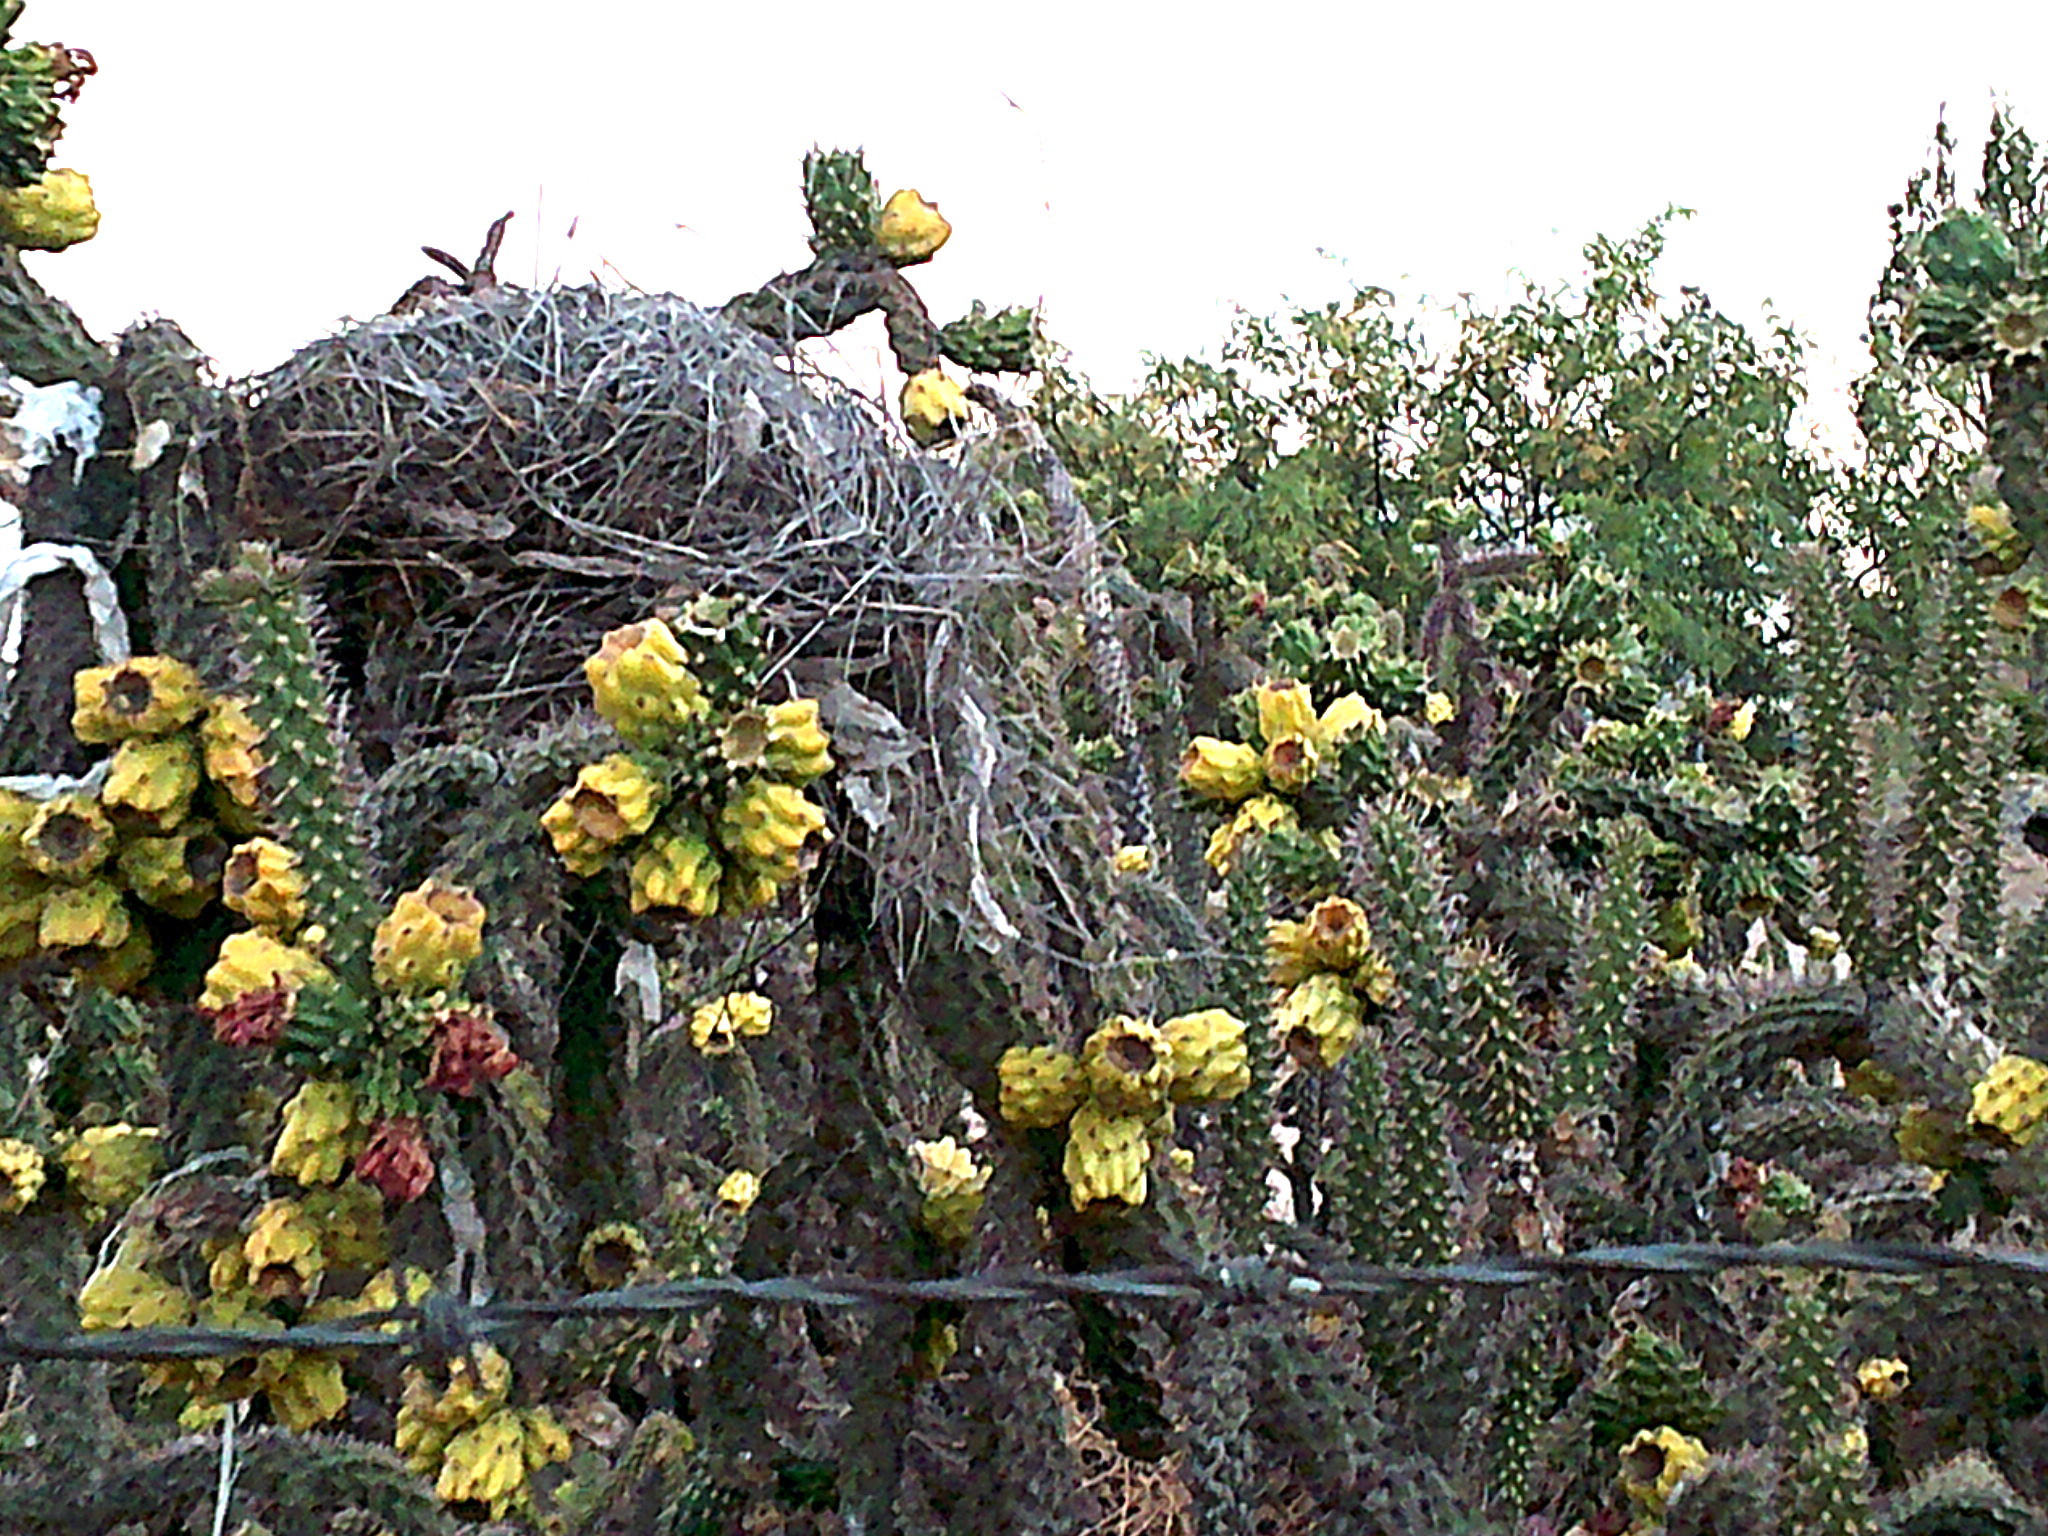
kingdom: Plantae
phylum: Tracheophyta
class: Magnoliopsida
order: Caryophyllales
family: Cactaceae
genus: Cylindropuntia
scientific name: Cylindropuntia imbricata
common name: Candelabrum cactus
